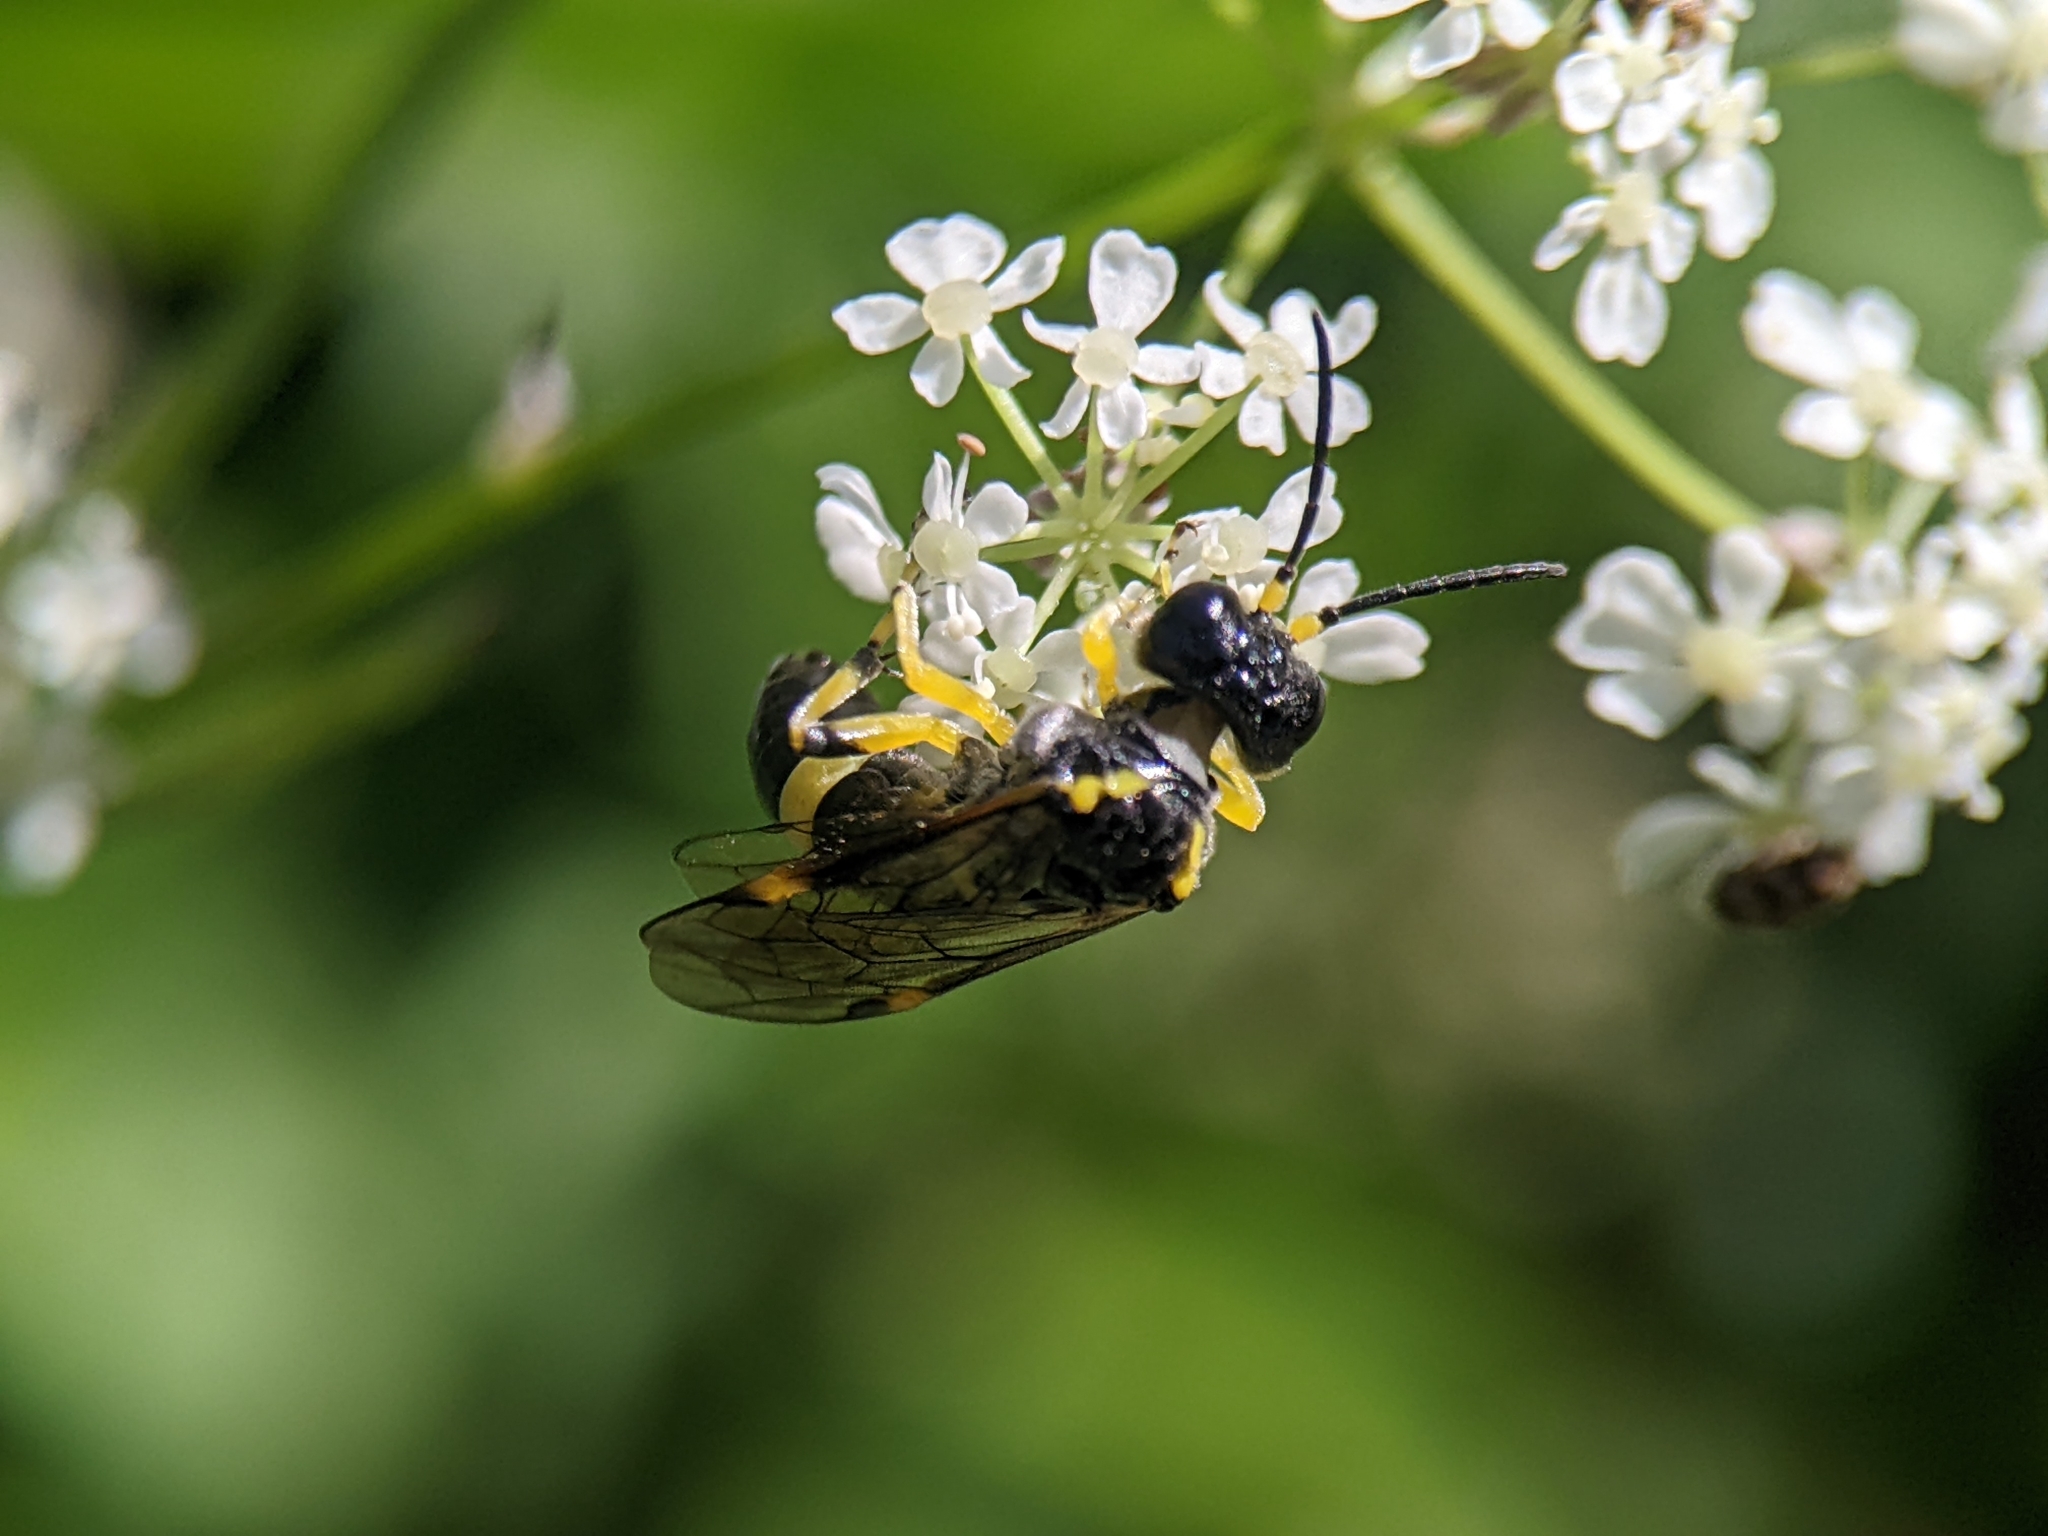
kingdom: Animalia
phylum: Arthropoda
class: Insecta
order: Hymenoptera
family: Tenthredinidae
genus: Tenthredo
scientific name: Tenthredo zonula
